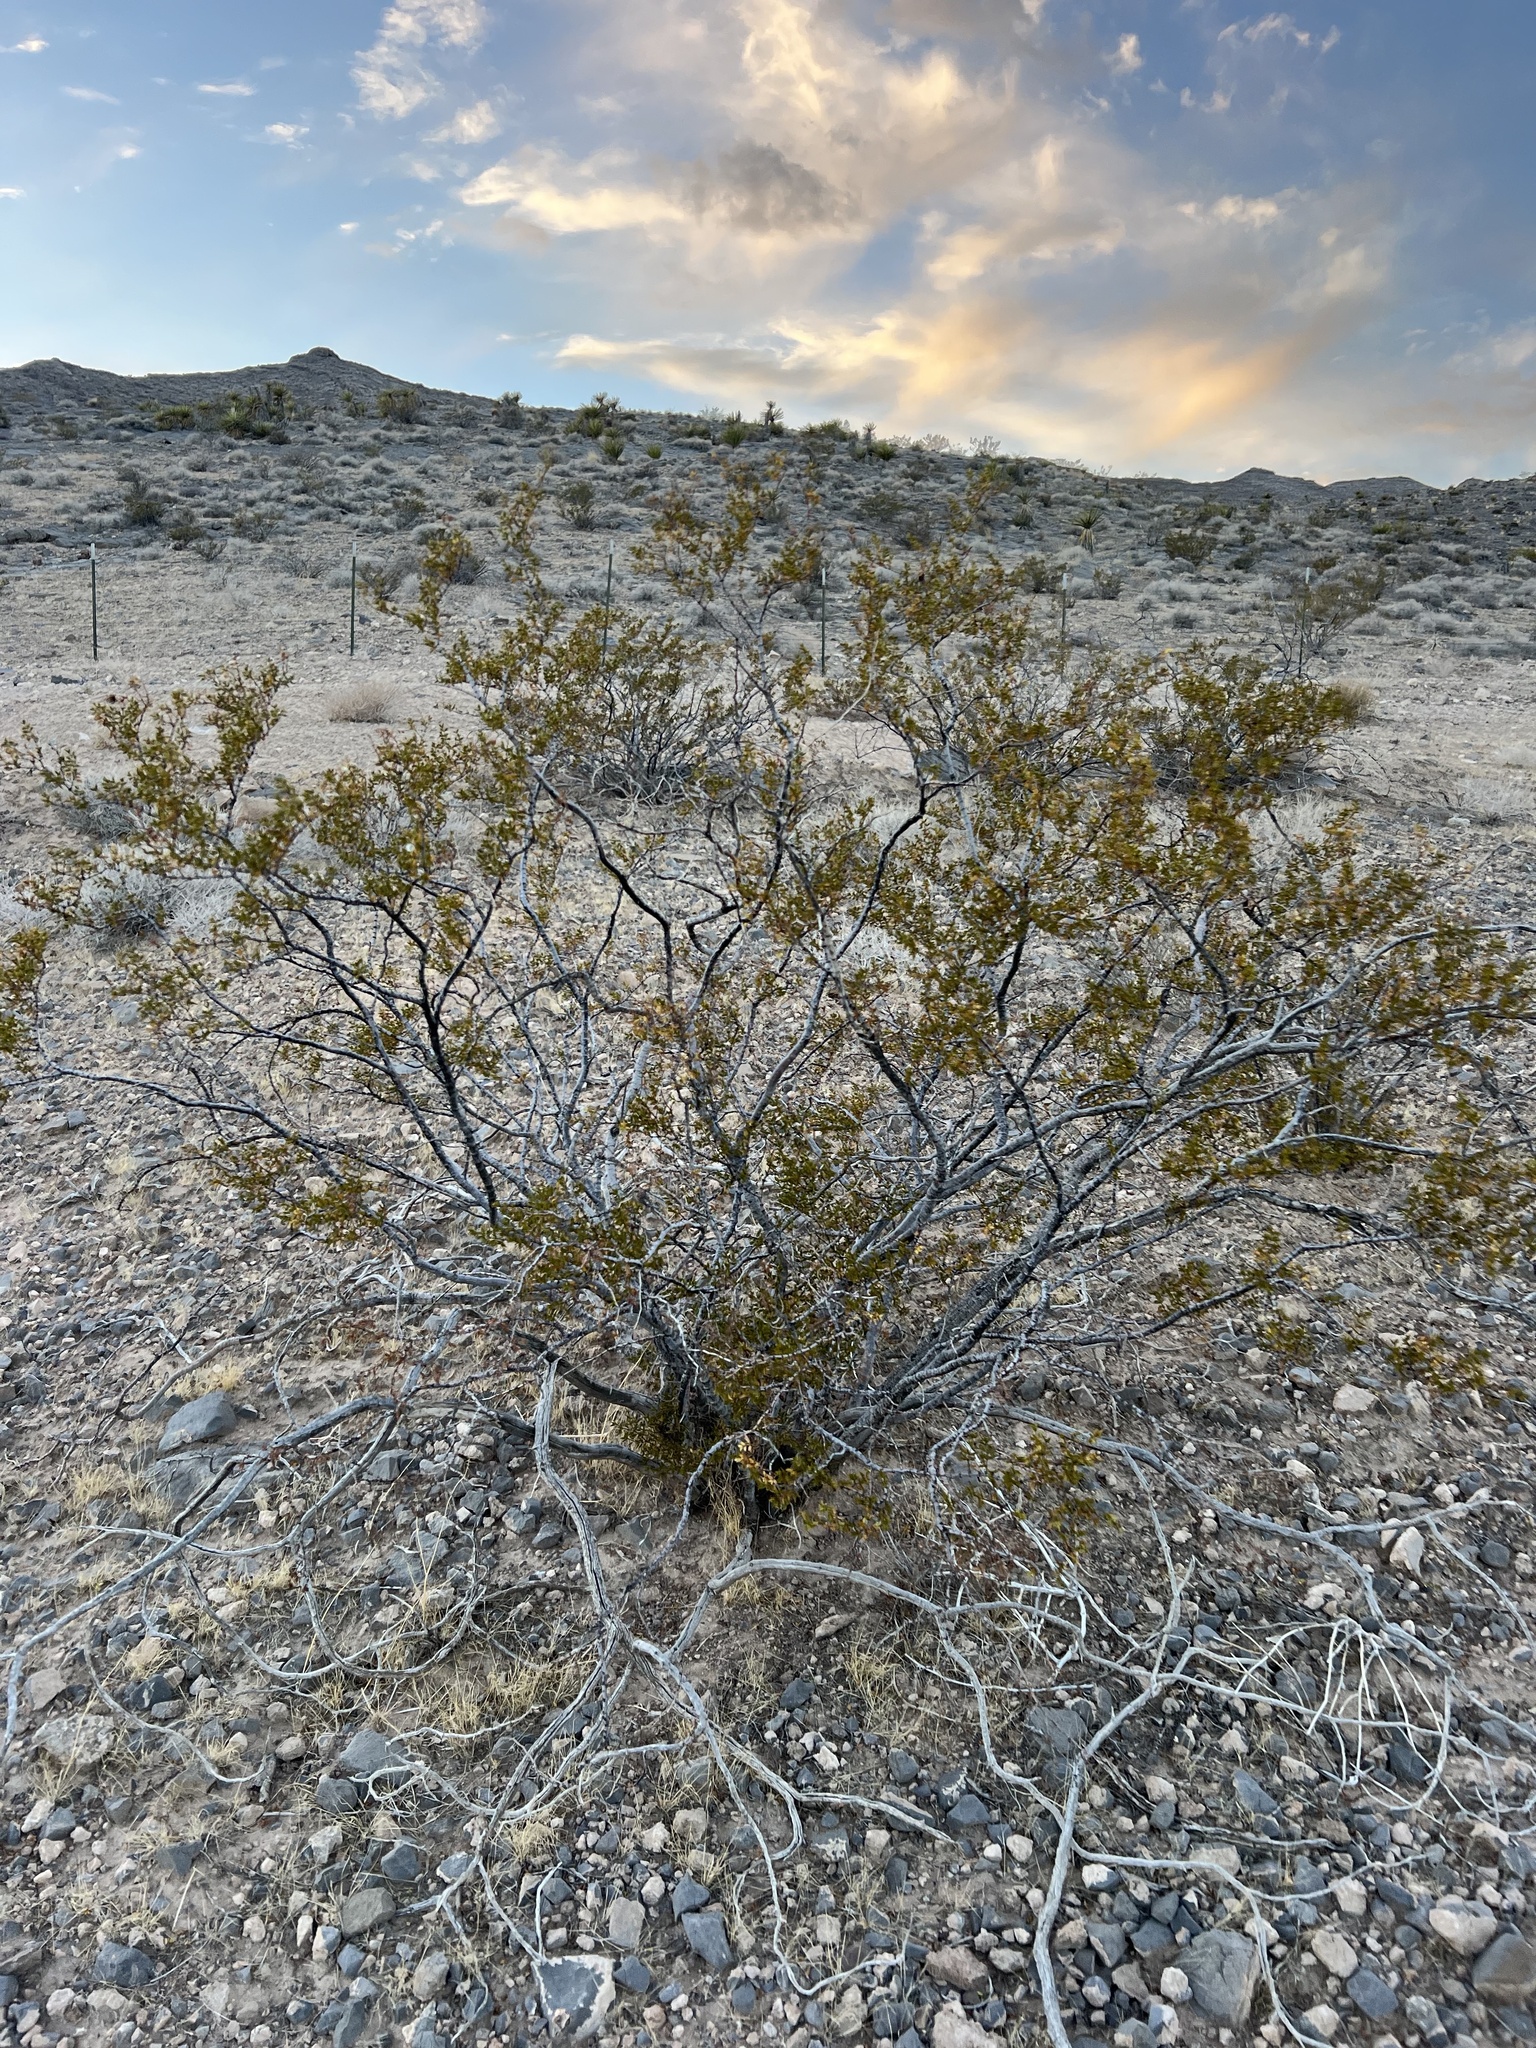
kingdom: Plantae
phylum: Tracheophyta
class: Magnoliopsida
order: Zygophyllales
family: Zygophyllaceae
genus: Larrea
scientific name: Larrea tridentata
